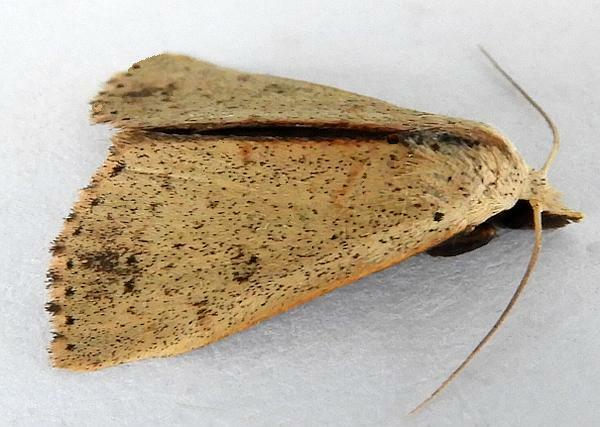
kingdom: Animalia
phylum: Arthropoda
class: Insecta
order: Lepidoptera
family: Erebidae
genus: Scolecocampa
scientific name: Scolecocampa liburna
